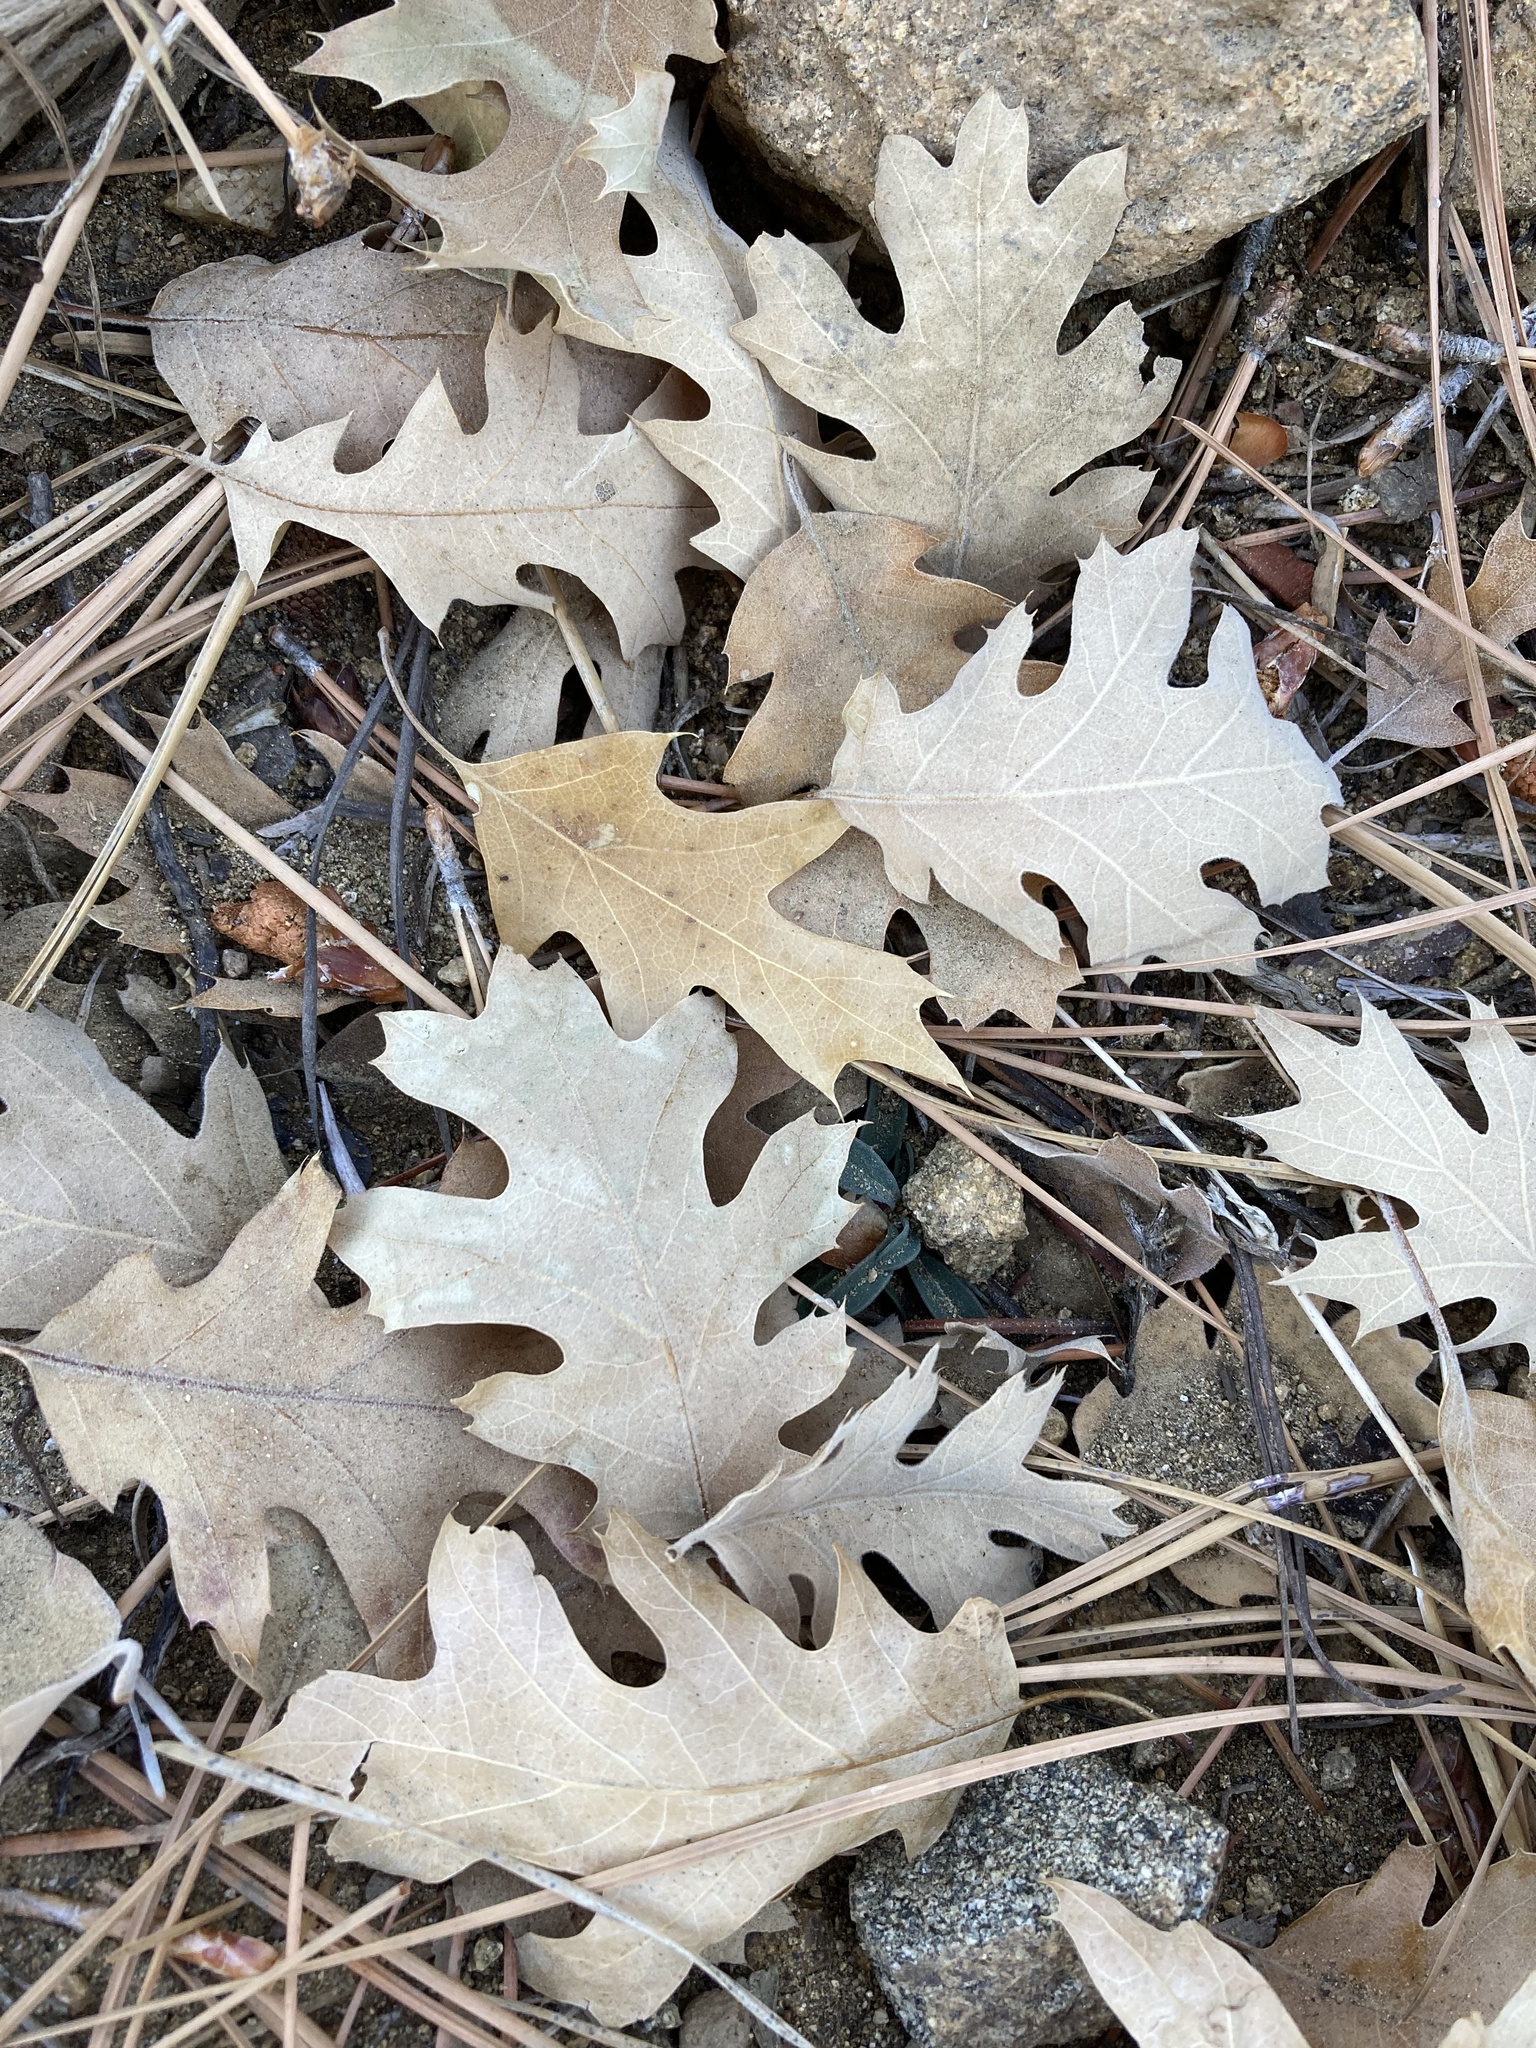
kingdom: Plantae
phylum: Tracheophyta
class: Magnoliopsida
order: Fagales
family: Fagaceae
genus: Quercus
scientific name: Quercus kelloggii
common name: California black oak
